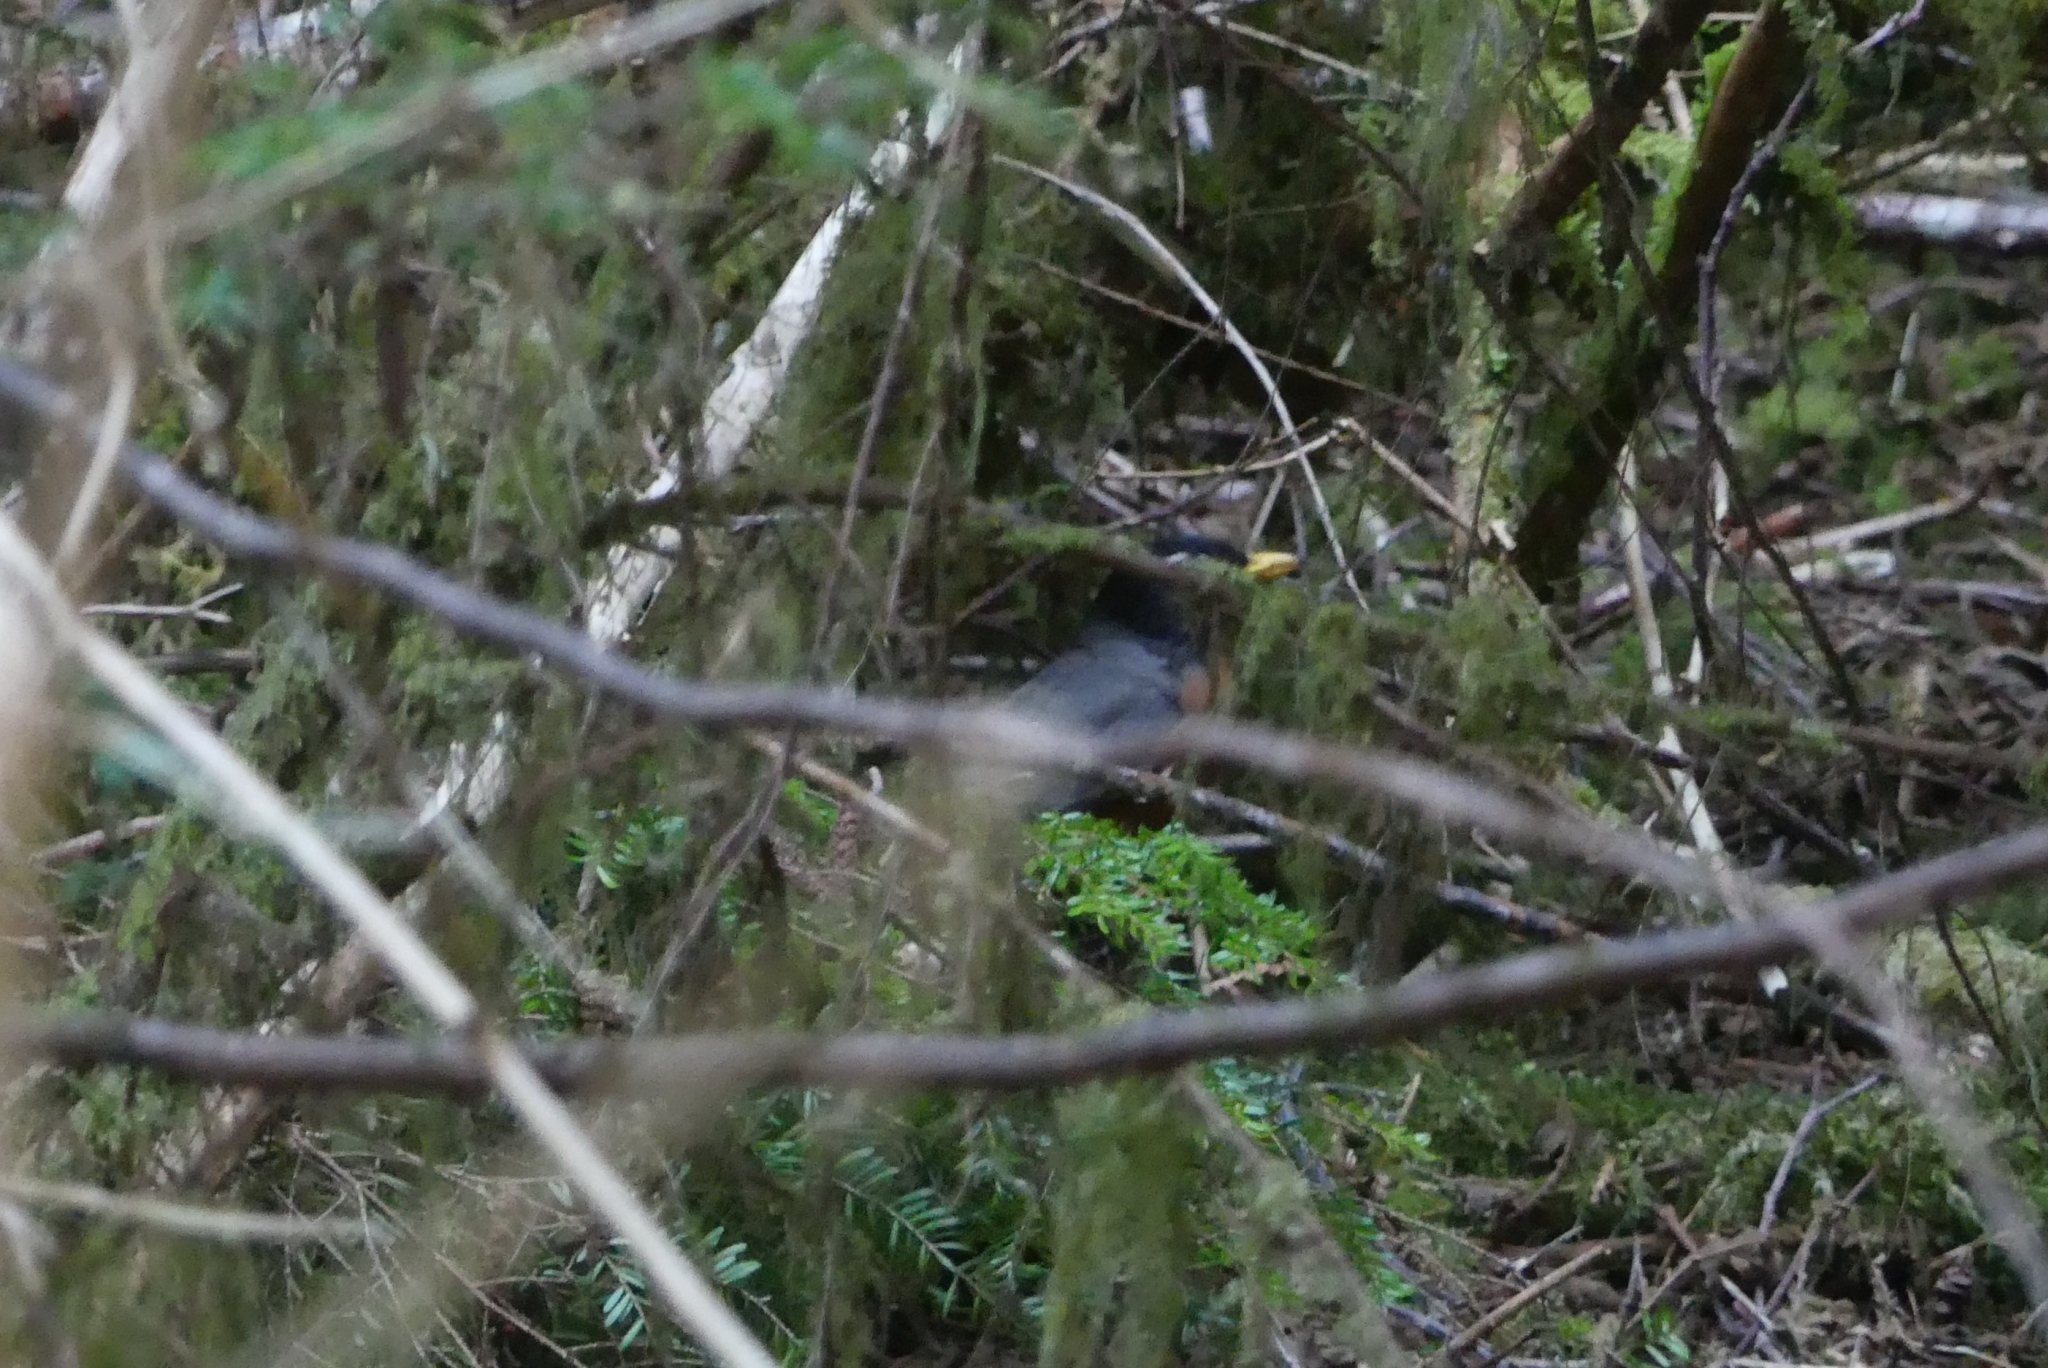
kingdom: Animalia
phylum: Chordata
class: Aves
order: Passeriformes
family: Turdidae
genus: Turdus
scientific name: Turdus migratorius
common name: American robin
